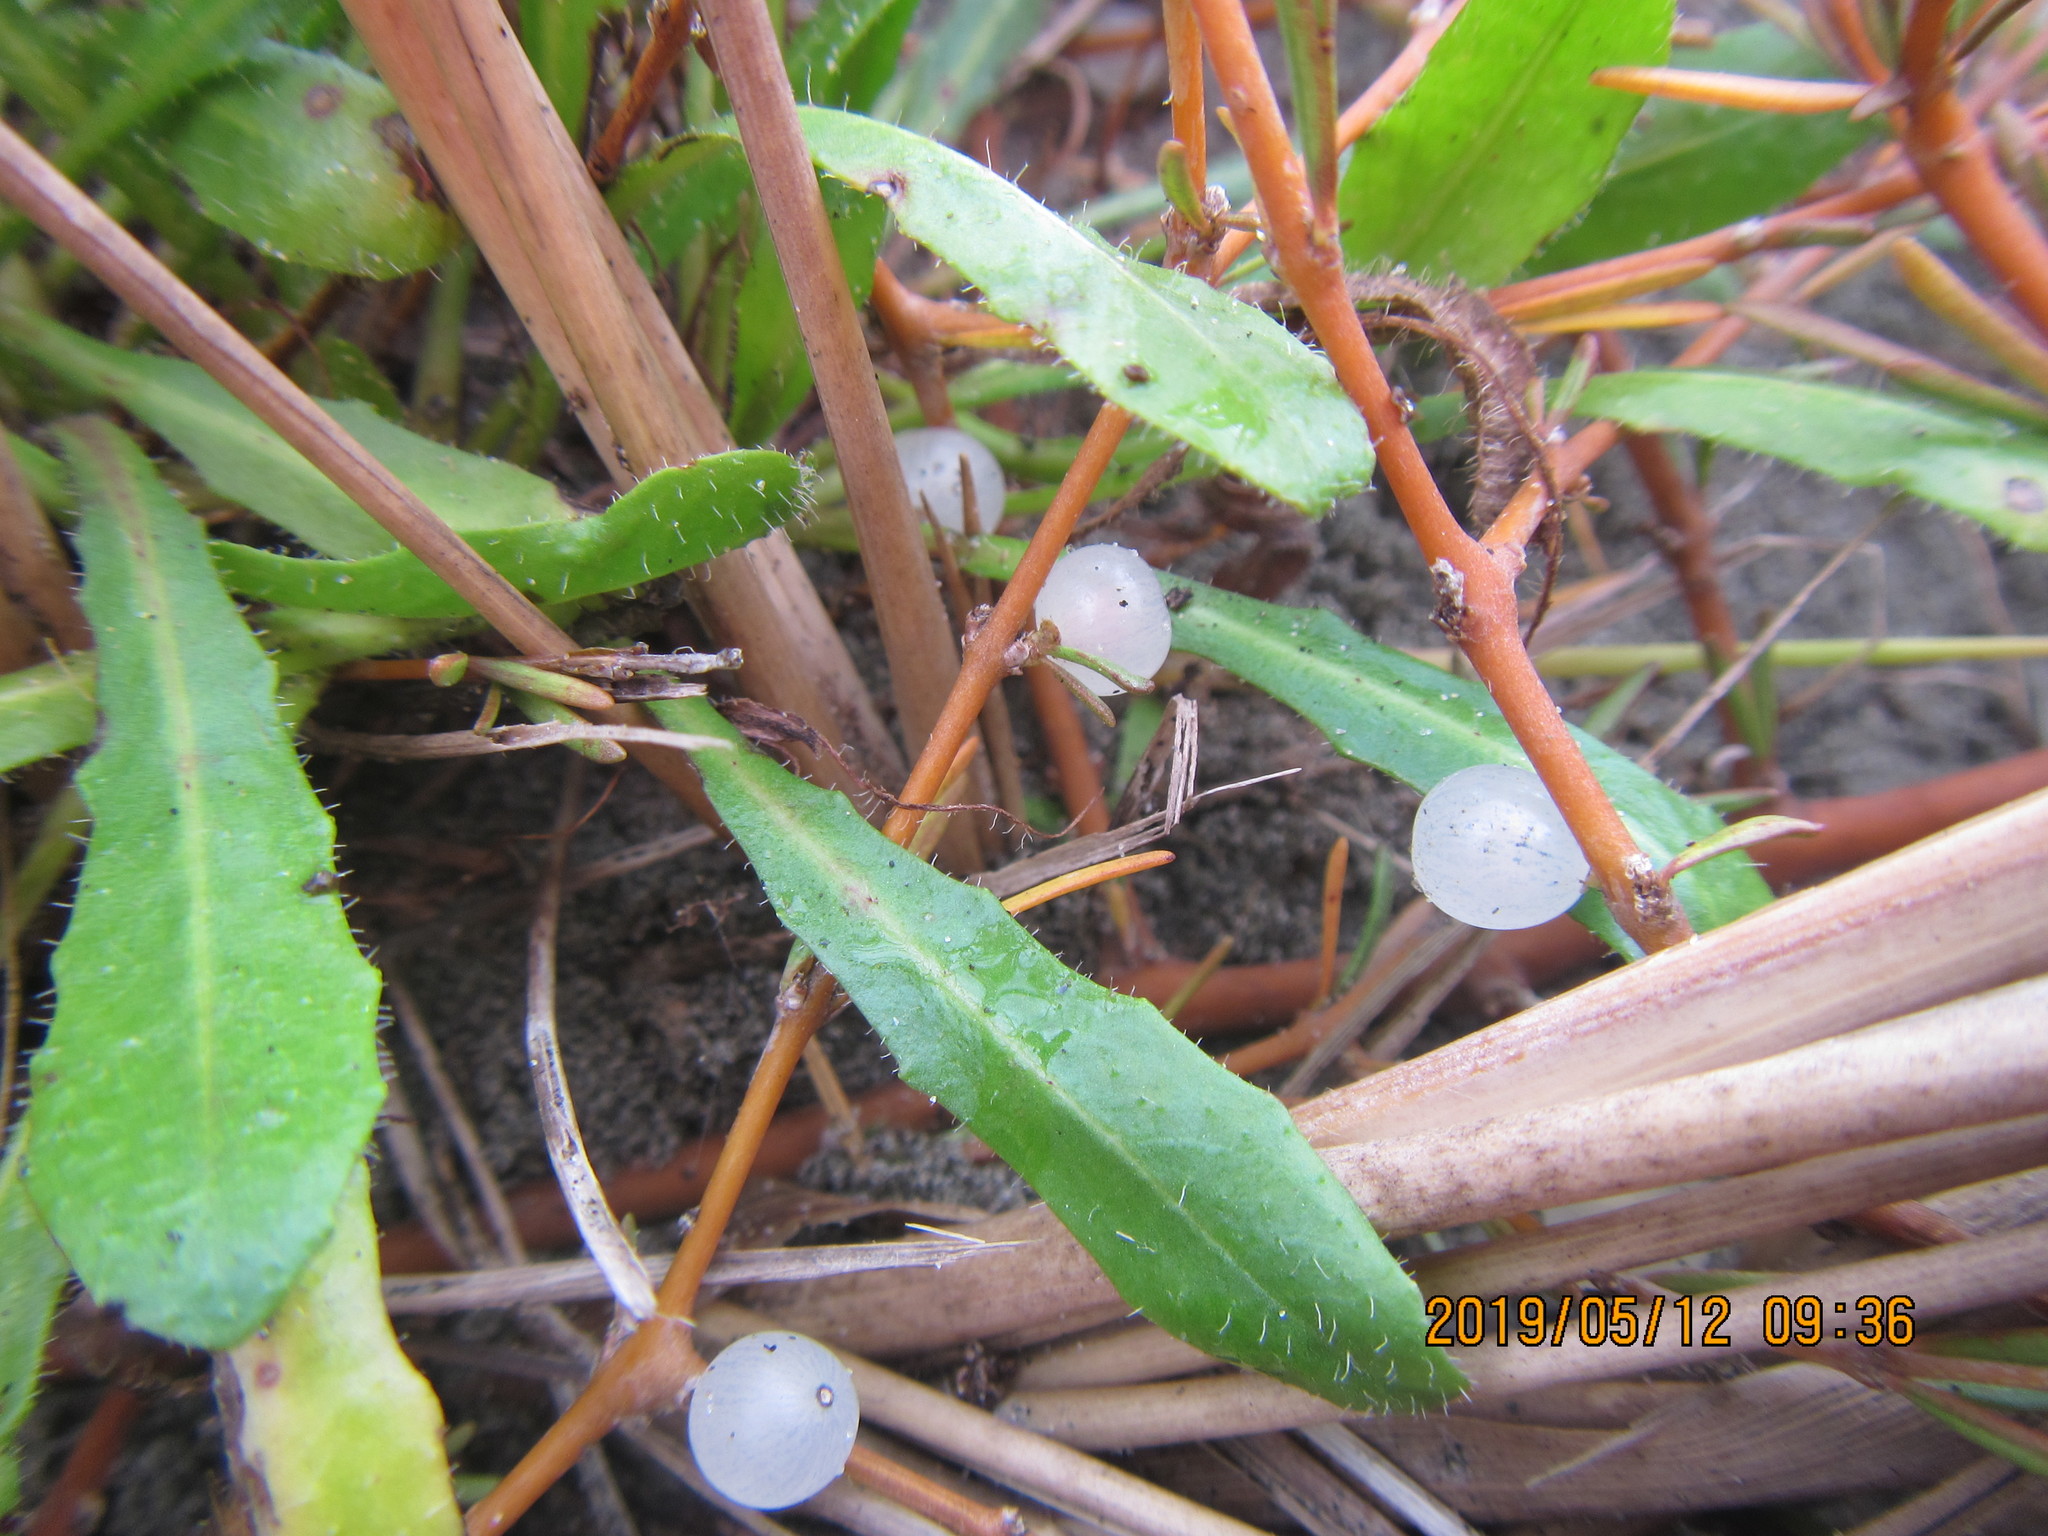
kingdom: Plantae
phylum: Tracheophyta
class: Magnoliopsida
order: Gentianales
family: Rubiaceae
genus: Coprosma
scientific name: Coprosma acerosa
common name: Sand coprosma
